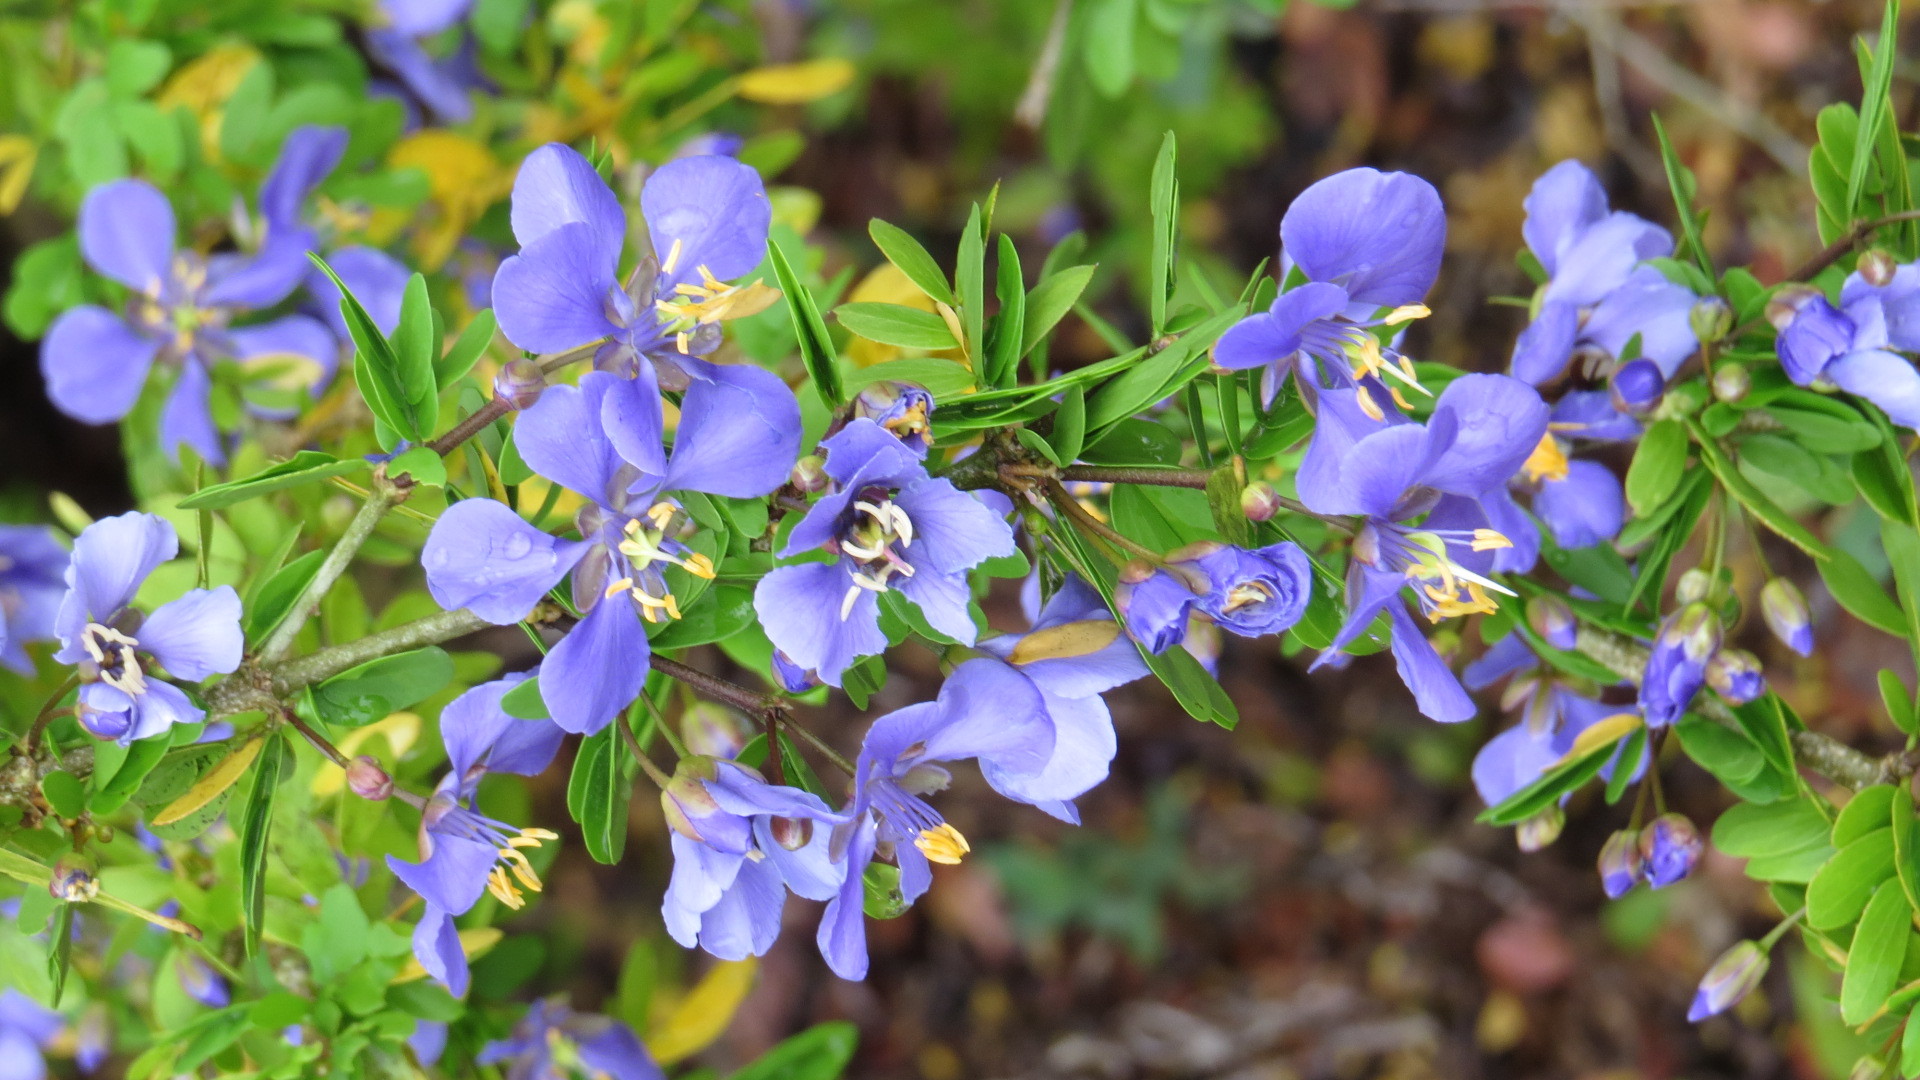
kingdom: Plantae
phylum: Tracheophyta
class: Magnoliopsida
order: Zygophyllales
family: Zygophyllaceae
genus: Guaiacum
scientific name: Guaiacum coulteri
